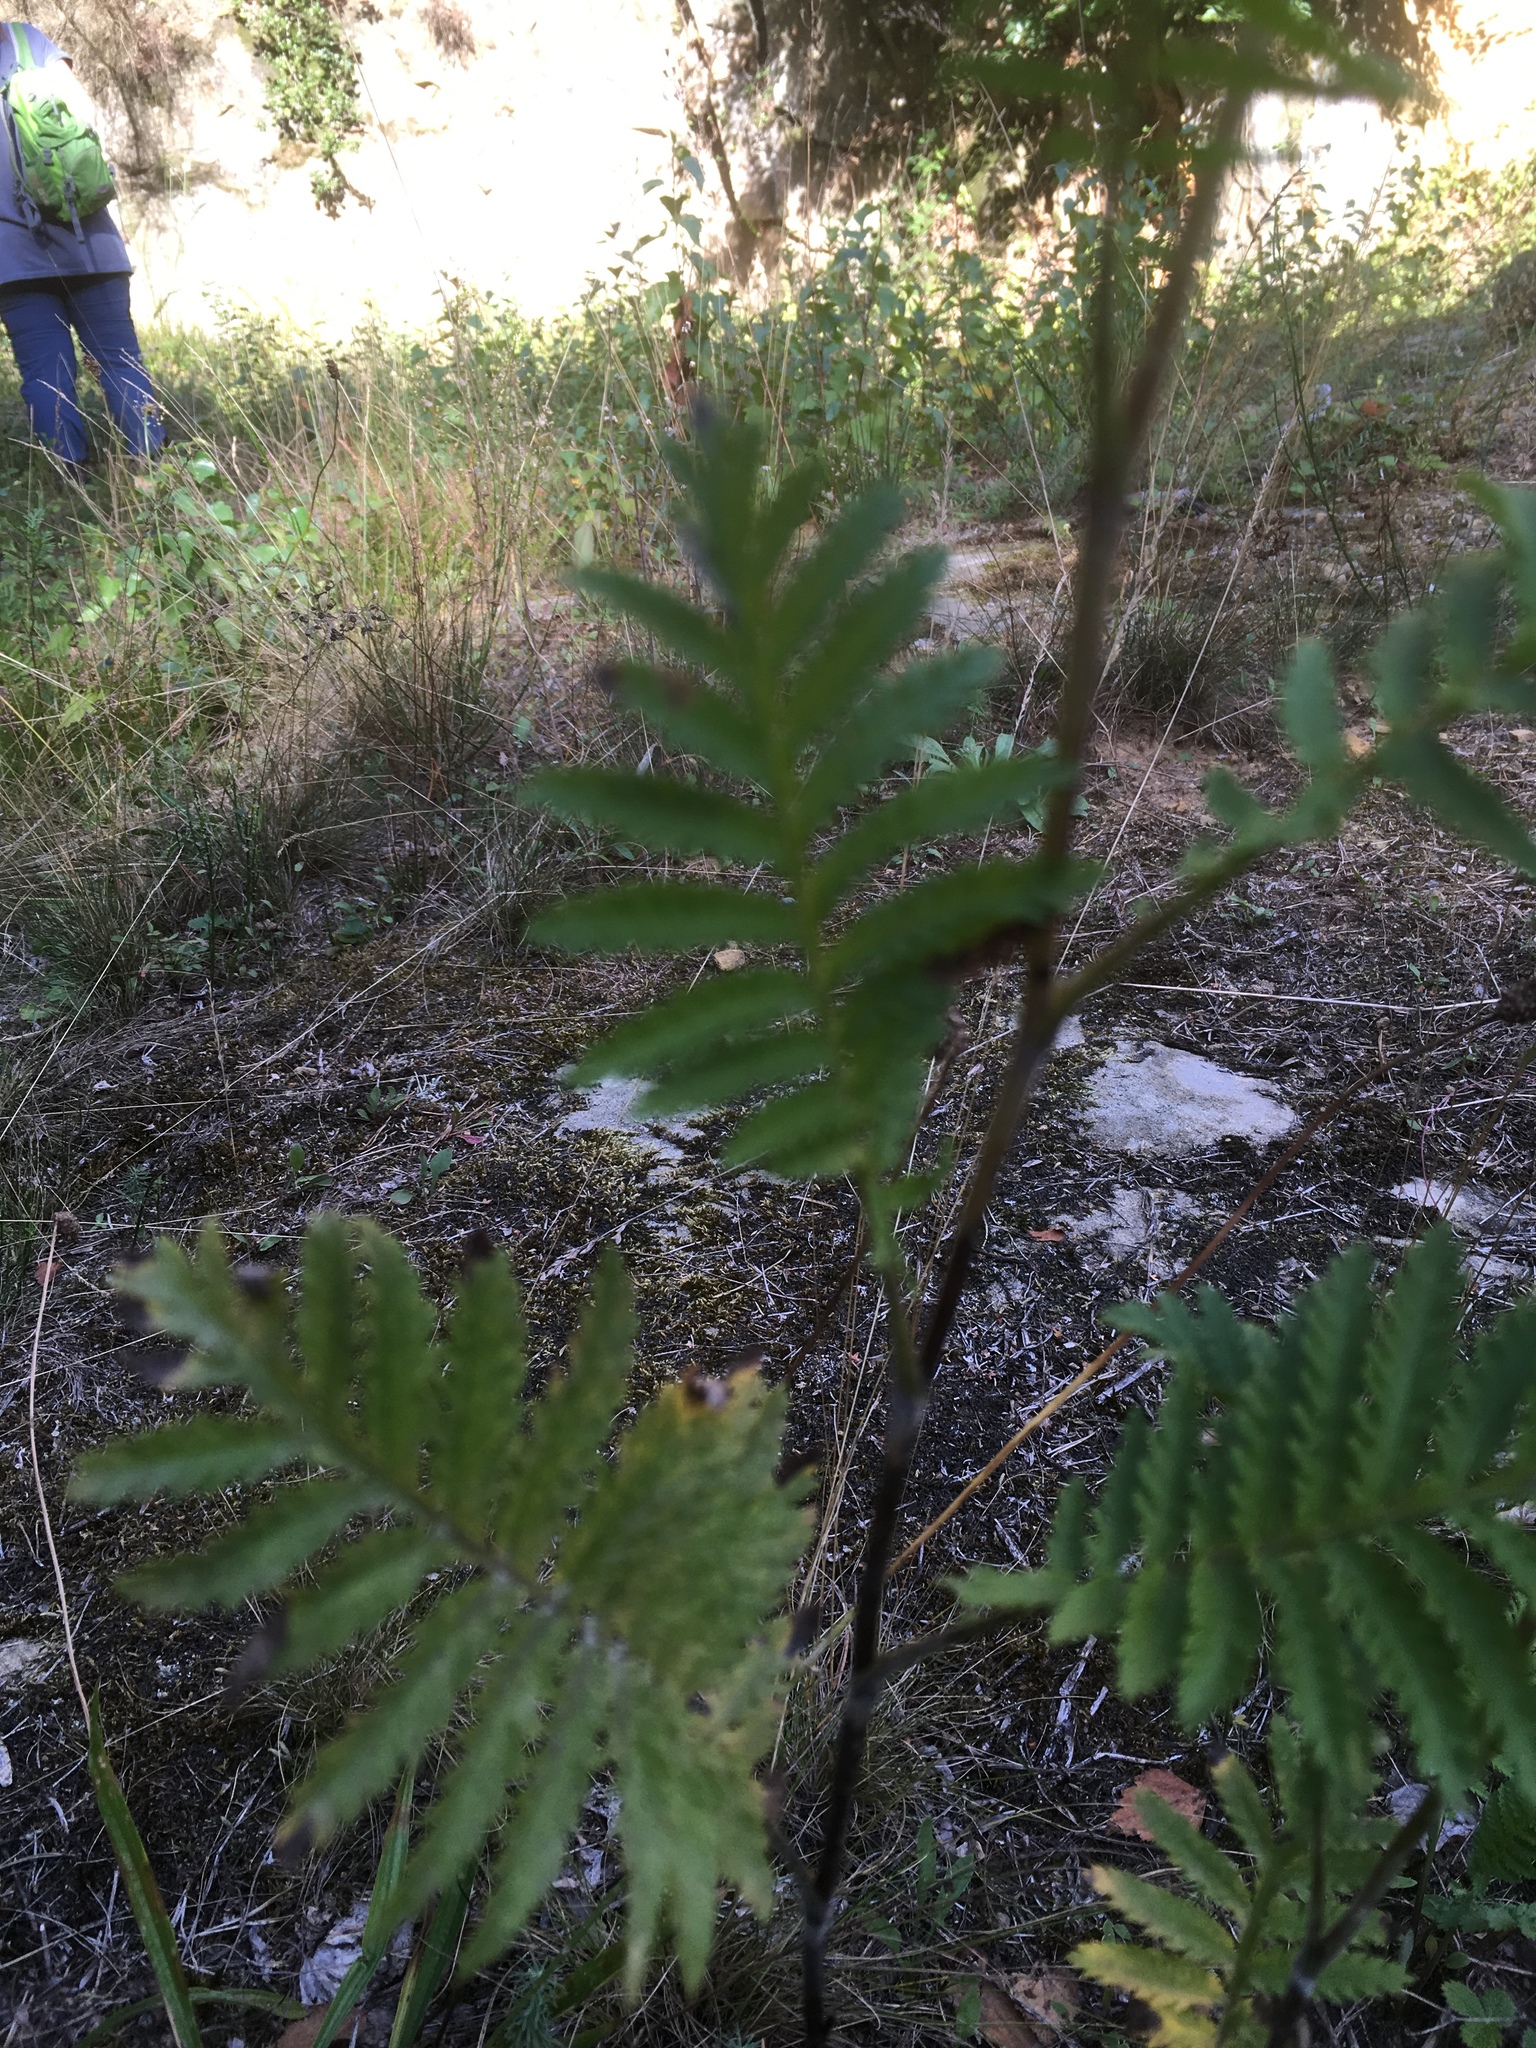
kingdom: Plantae
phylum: Tracheophyta
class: Magnoliopsida
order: Asterales
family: Asteraceae
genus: Tanacetum
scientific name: Tanacetum vulgare
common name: Common tansy
